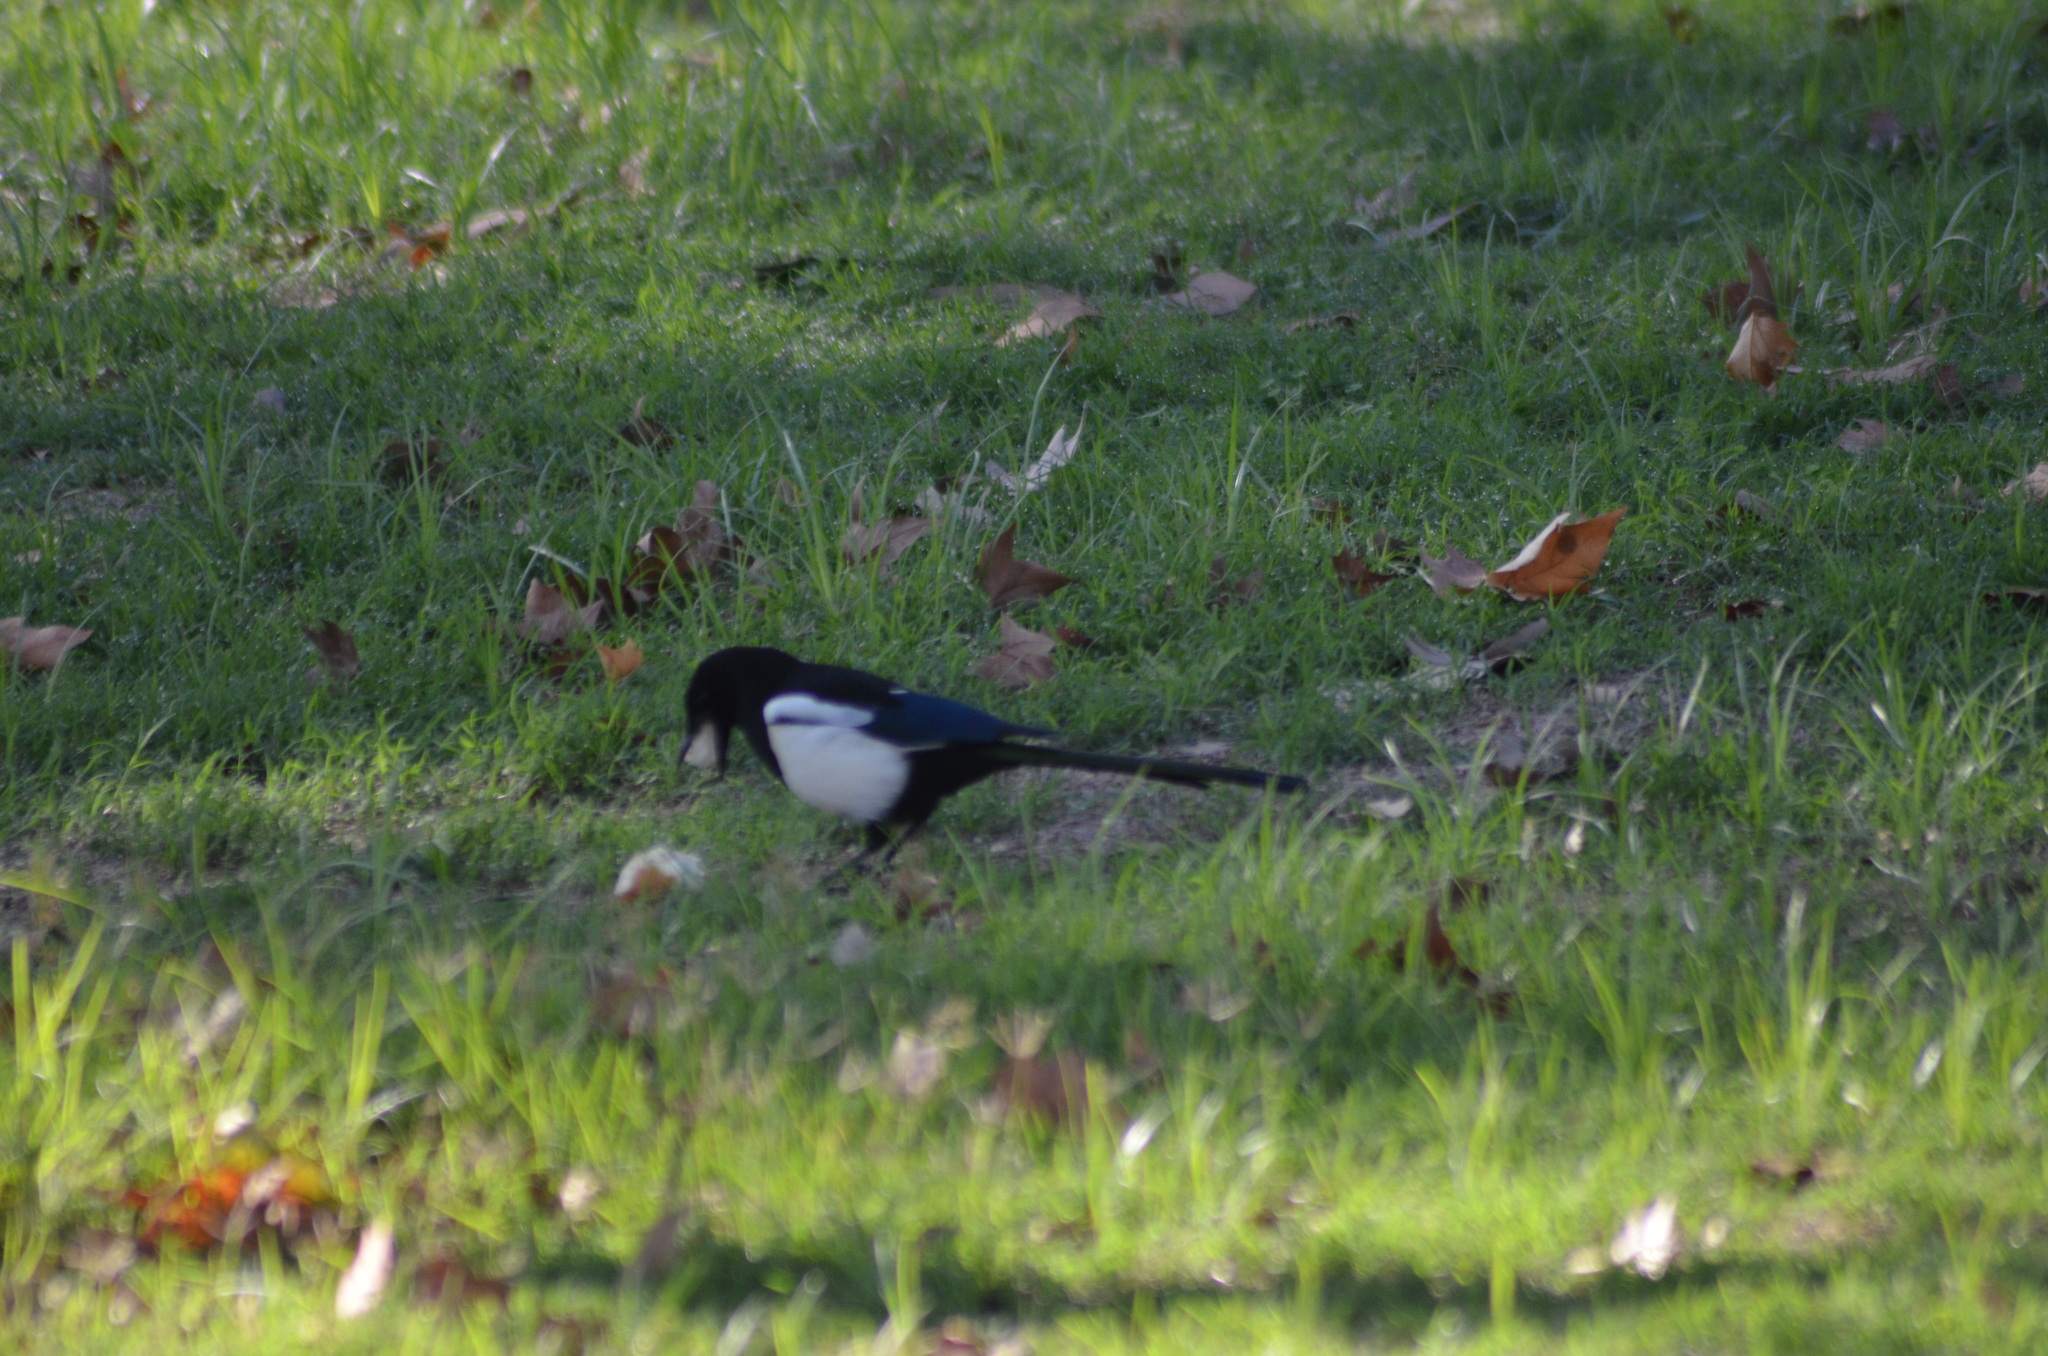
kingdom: Animalia
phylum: Chordata
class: Aves
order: Passeriformes
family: Corvidae
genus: Pica
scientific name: Pica pica
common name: Eurasian magpie
